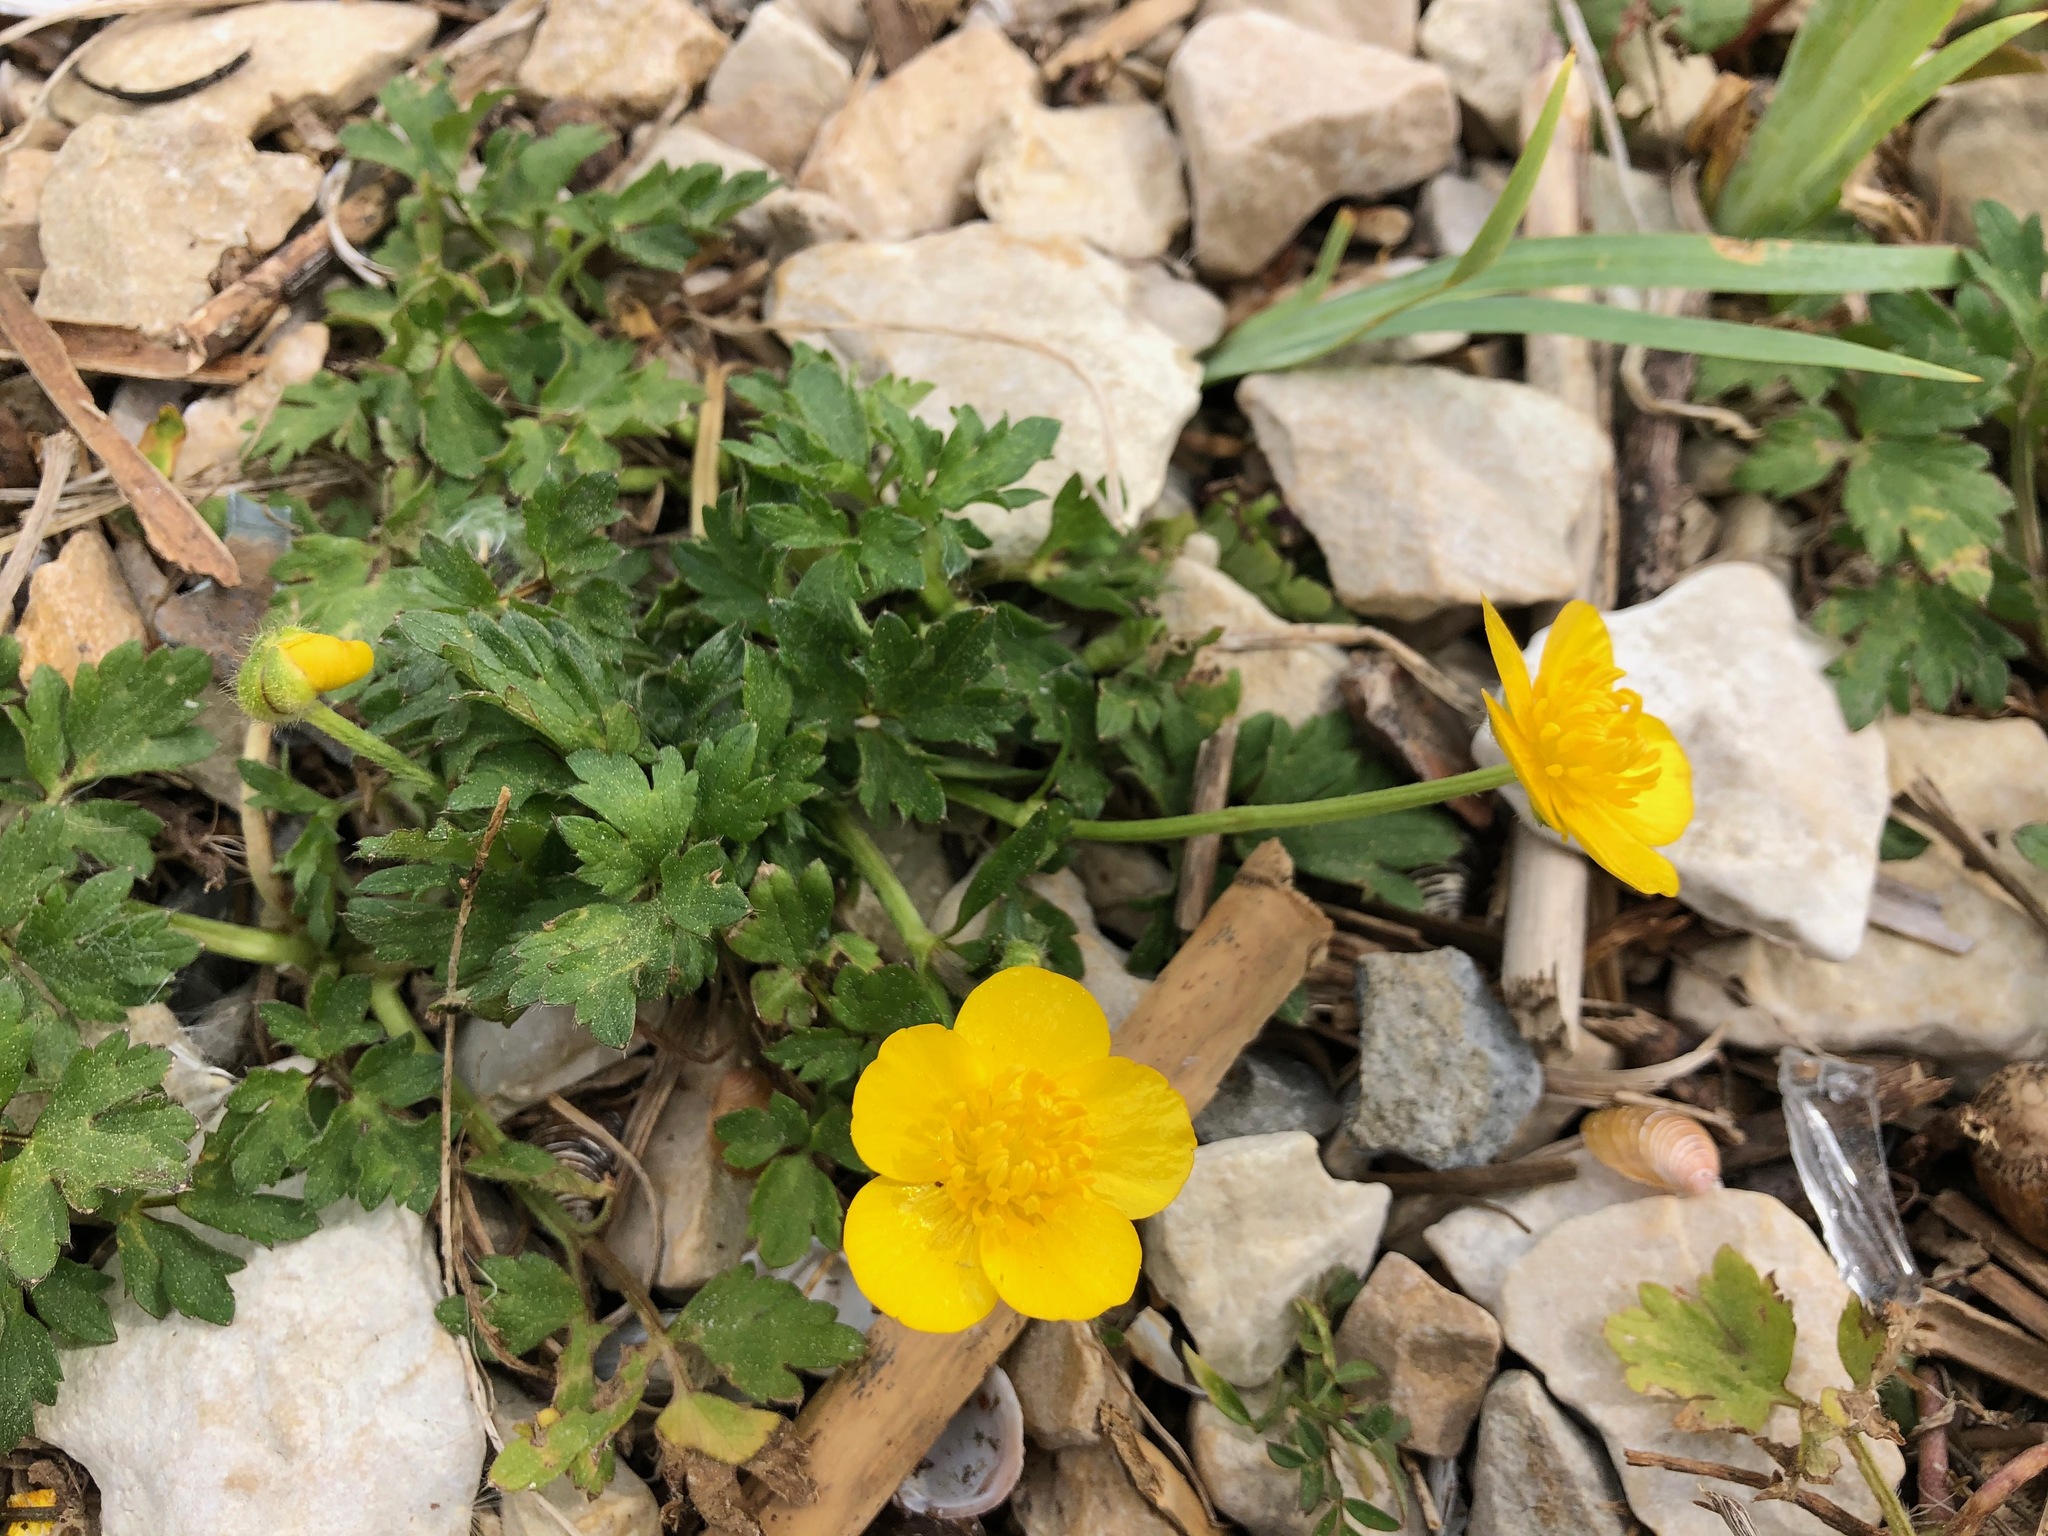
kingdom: Plantae
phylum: Tracheophyta
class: Magnoliopsida
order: Ranunculales
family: Ranunculaceae
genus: Ranunculus
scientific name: Ranunculus repens
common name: Creeping buttercup
